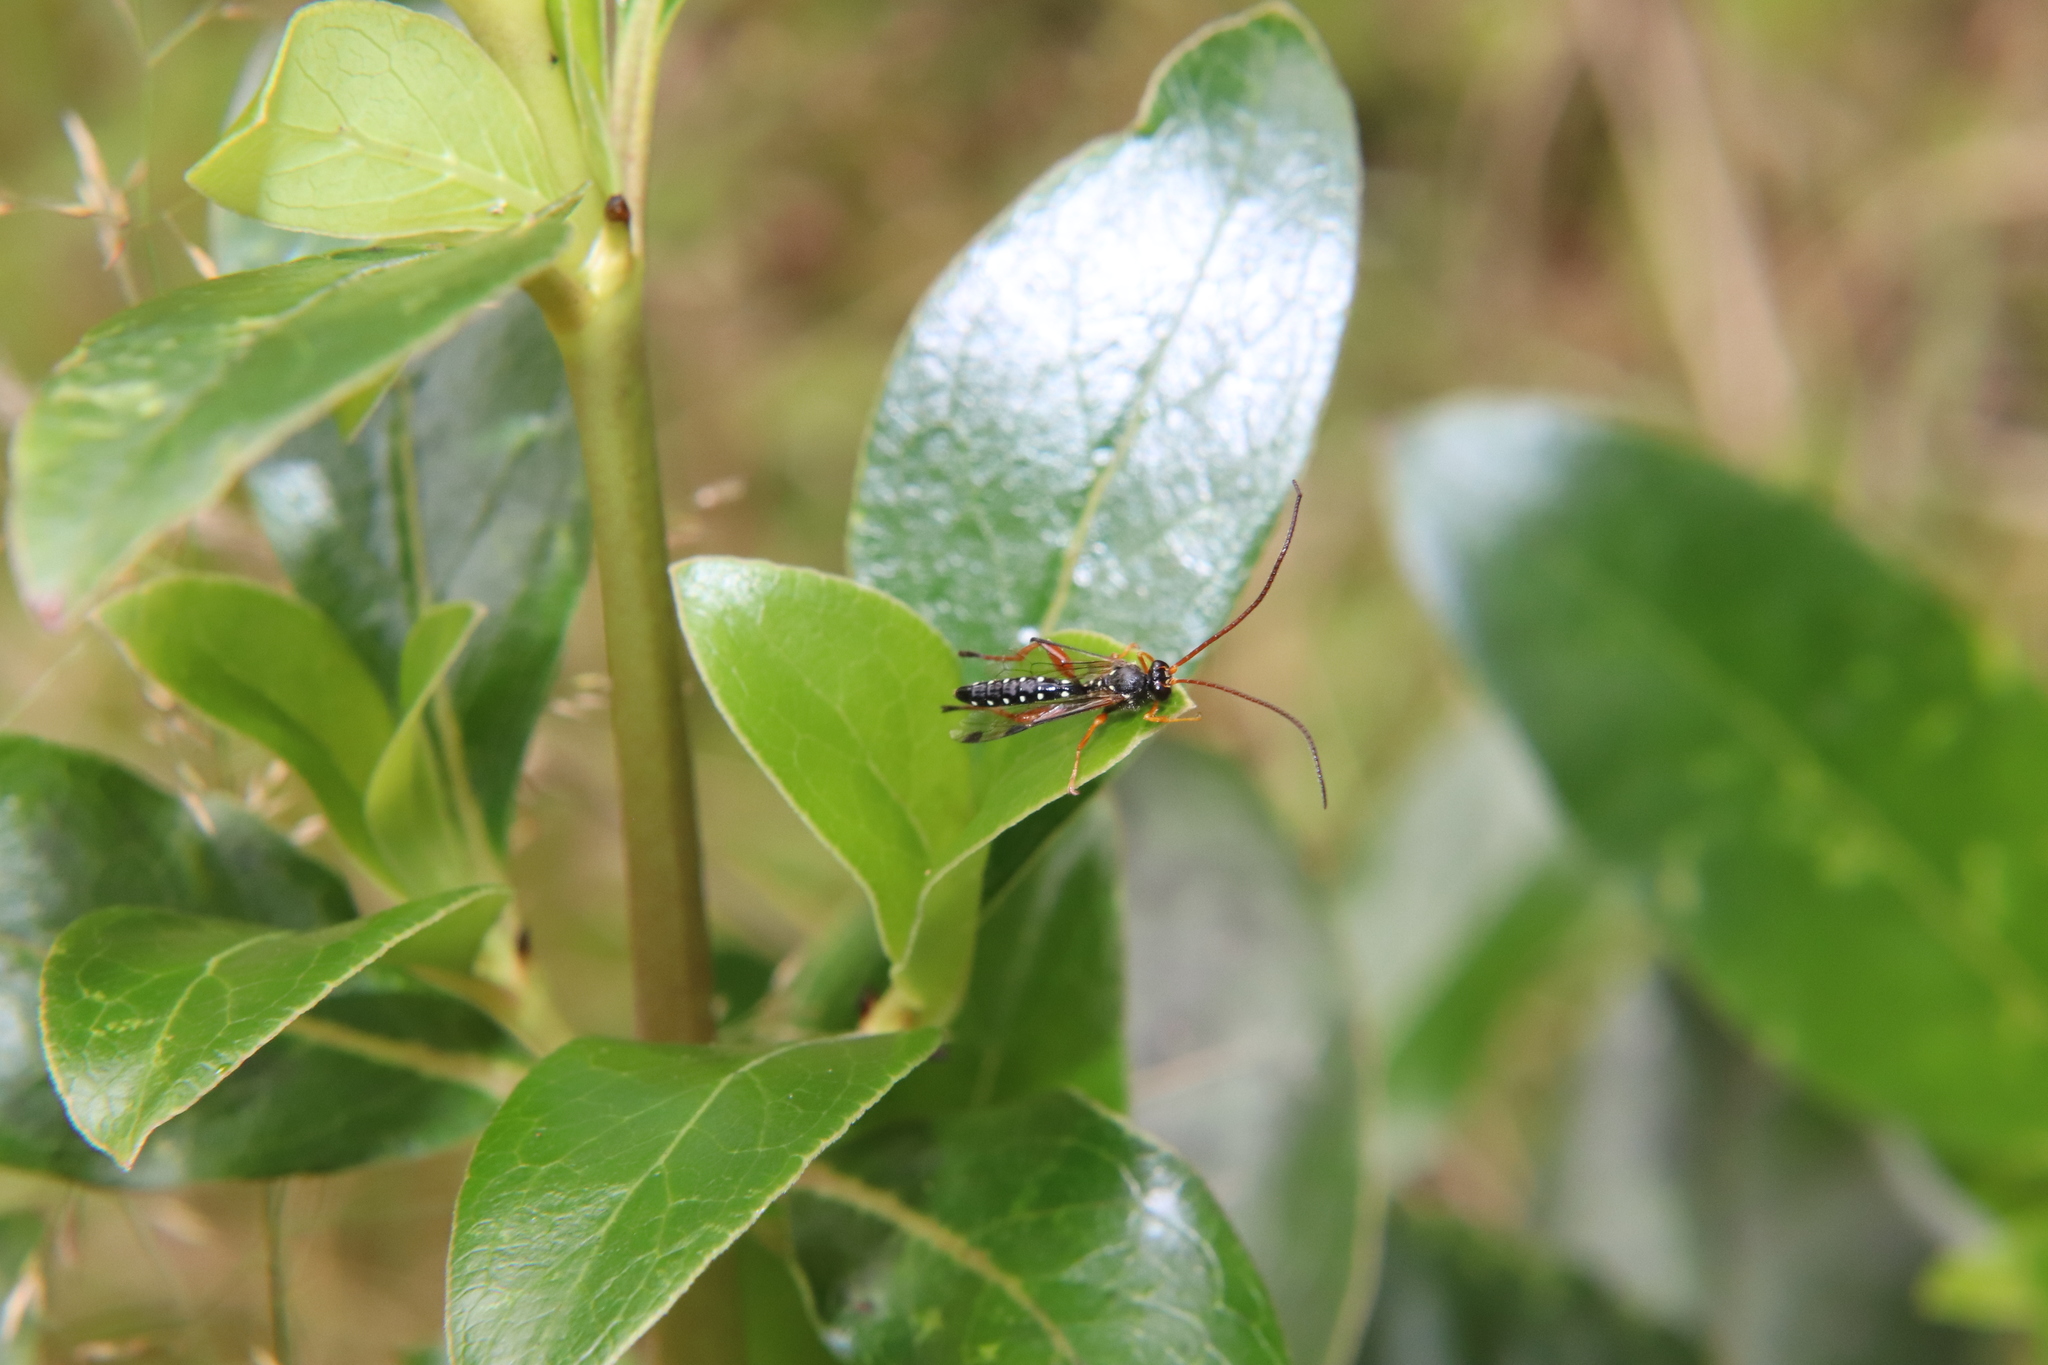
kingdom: Animalia
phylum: Arthropoda
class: Insecta
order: Hymenoptera
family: Ichneumonidae
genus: Echthromorpha
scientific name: Echthromorpha intricatoria
